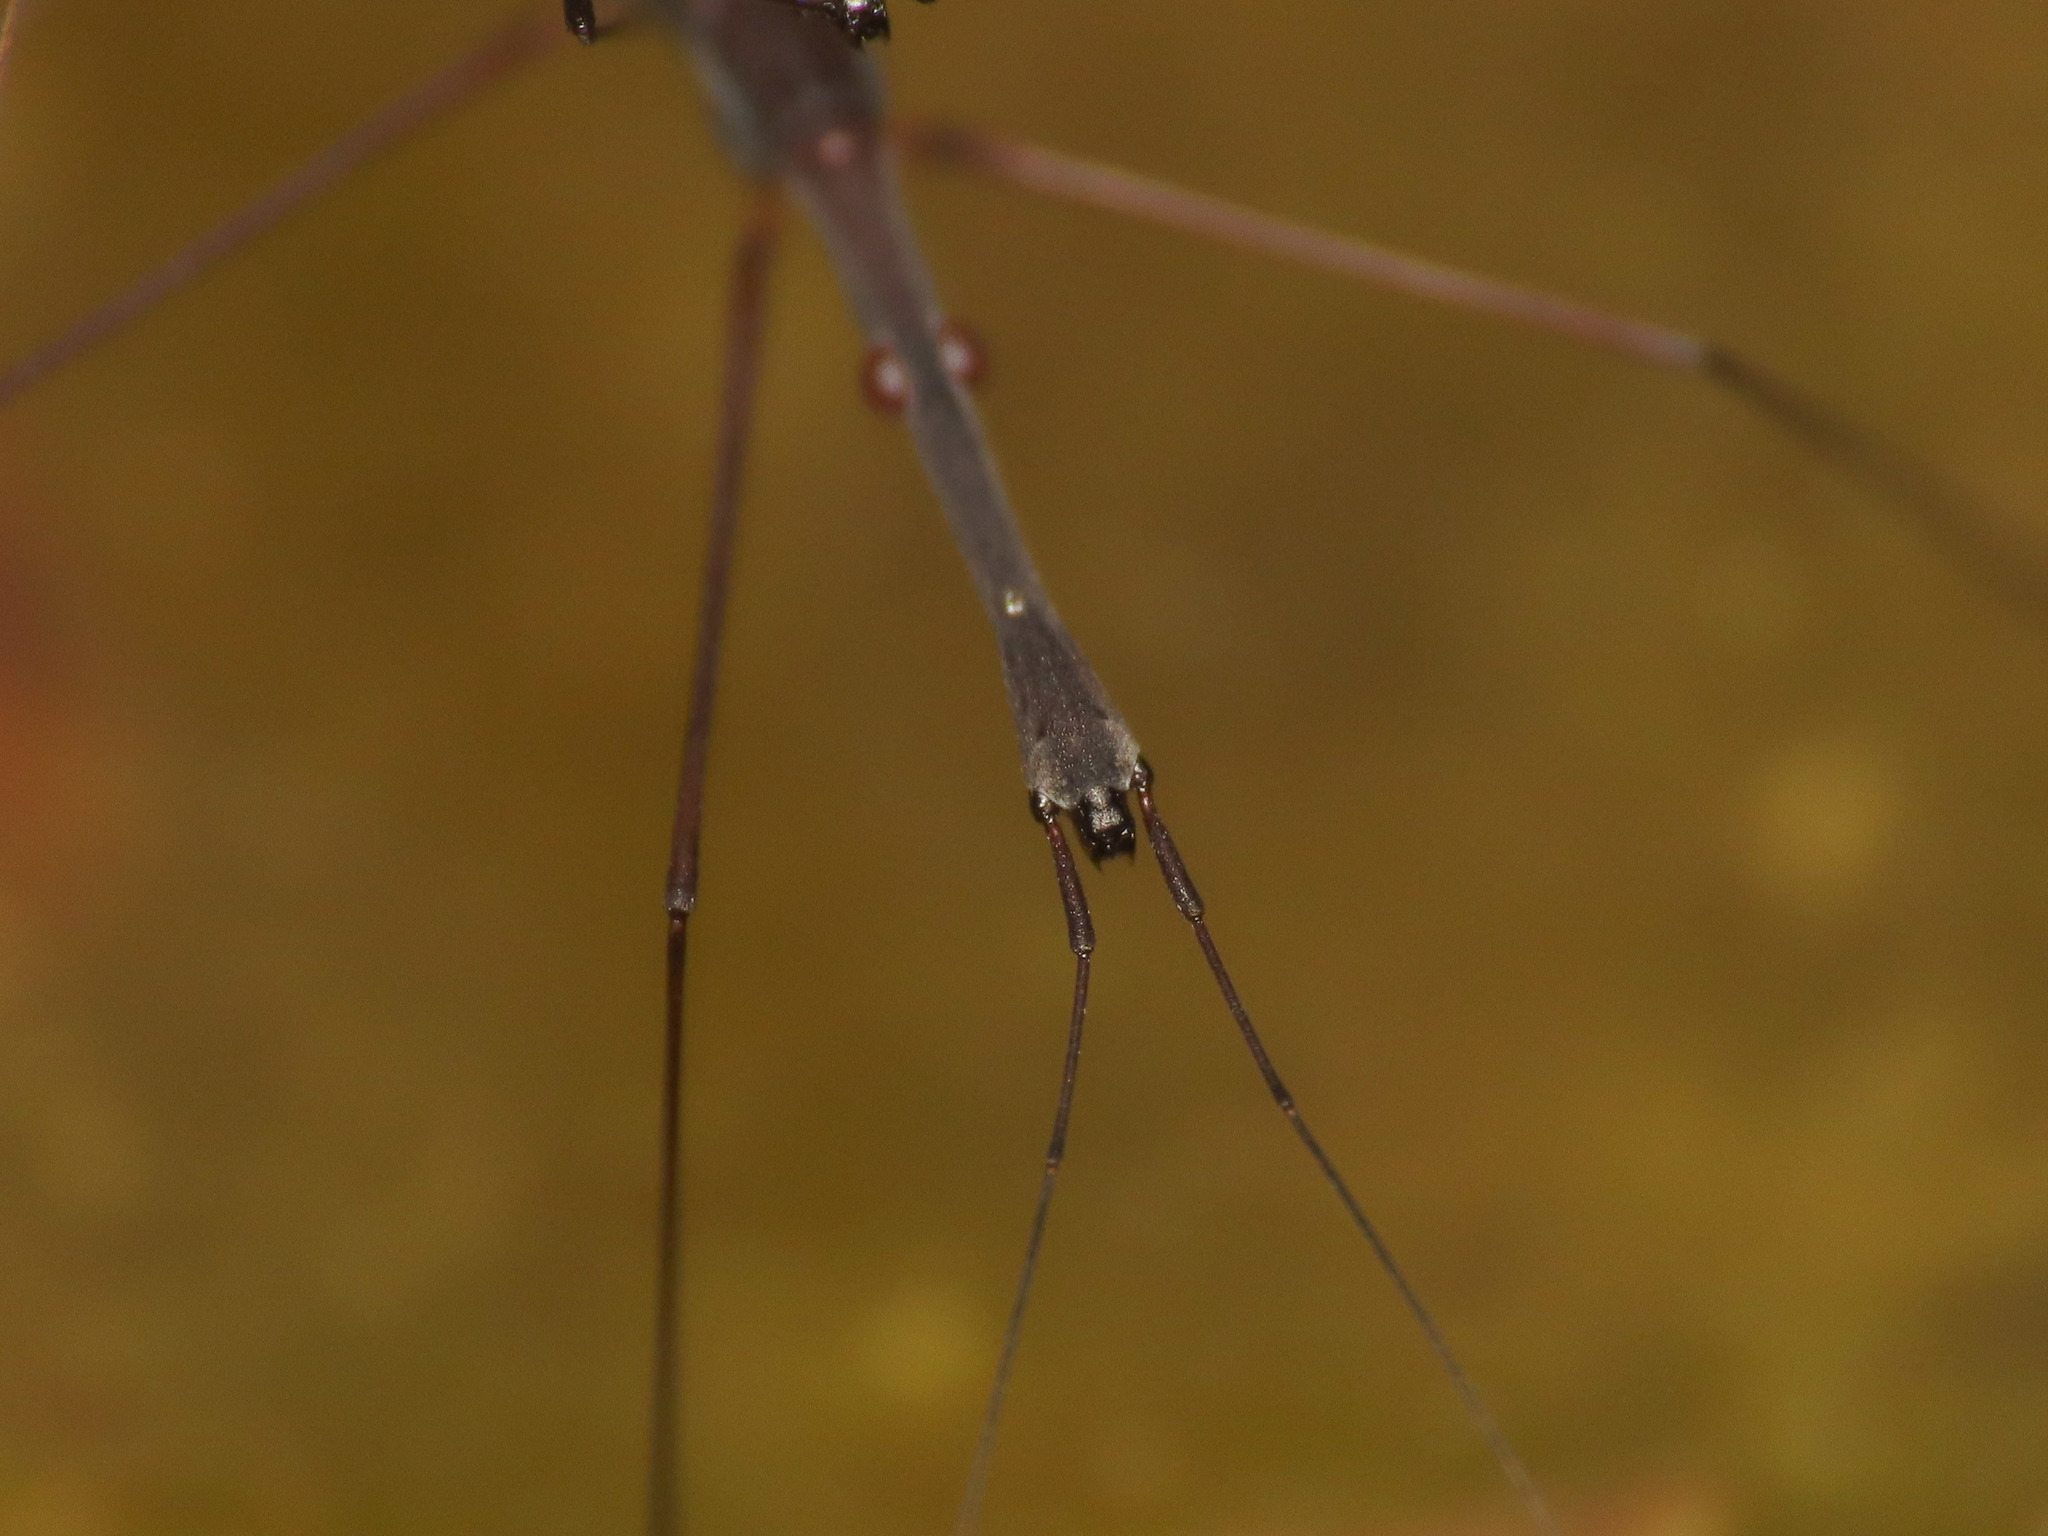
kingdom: Animalia
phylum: Arthropoda
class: Insecta
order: Hemiptera
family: Hydrometridae
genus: Hydrometra
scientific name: Hydrometra stagnorum
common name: Water measurer
